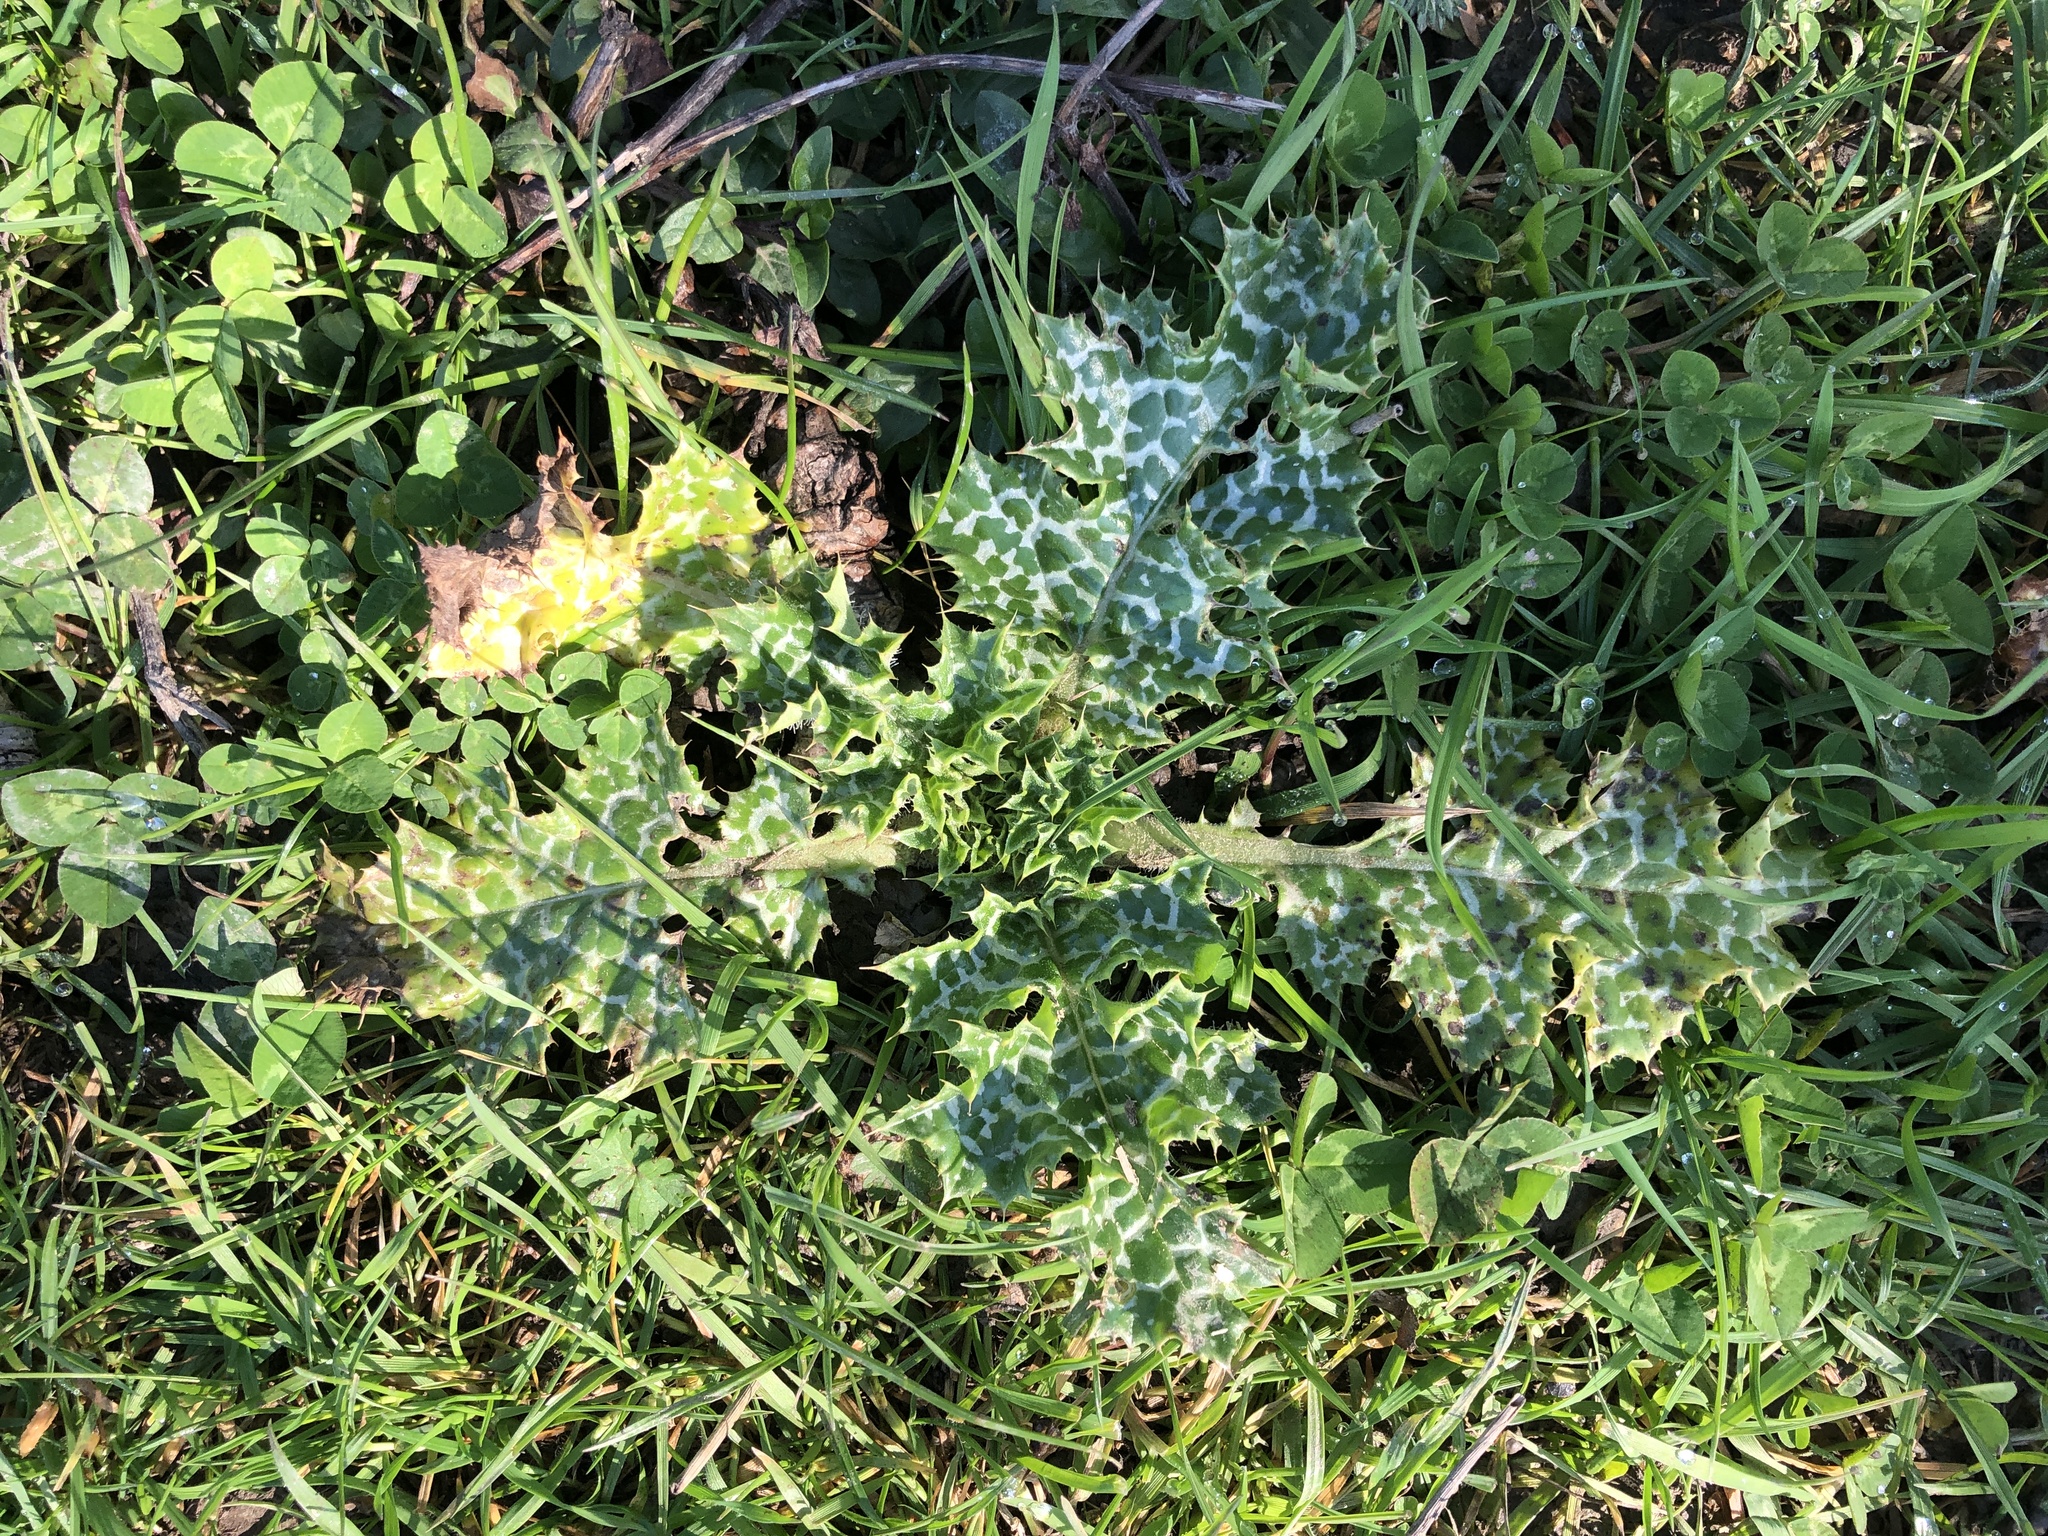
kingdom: Plantae
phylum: Tracheophyta
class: Magnoliopsida
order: Asterales
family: Asteraceae
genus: Silybum
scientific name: Silybum marianum
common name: Milk thistle
